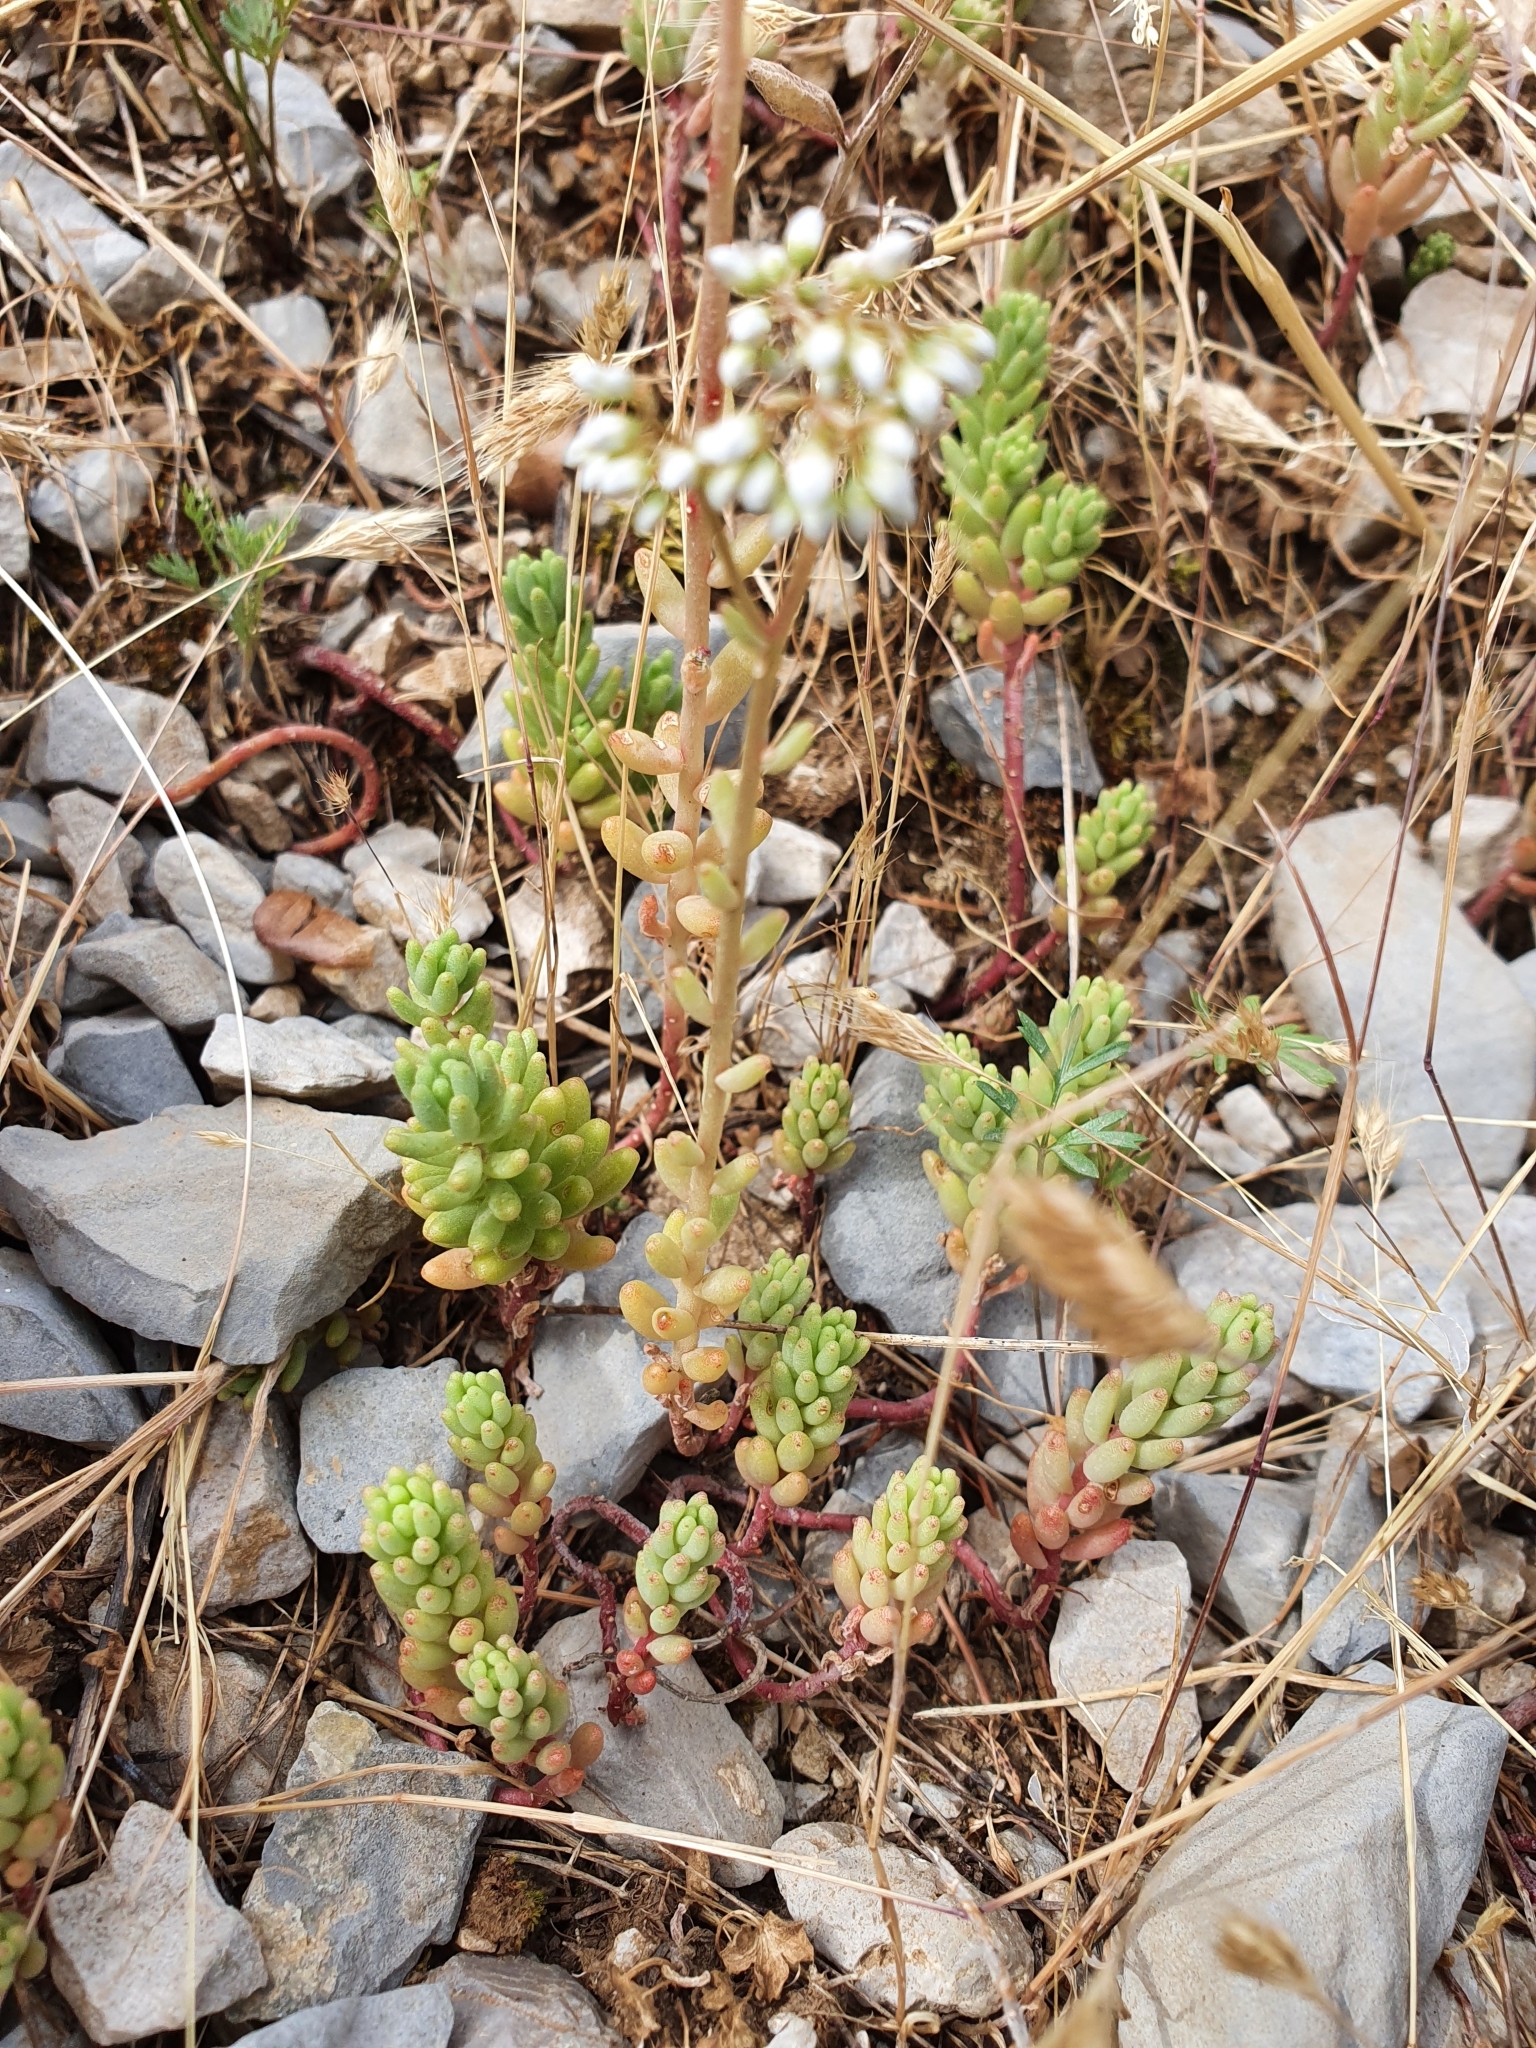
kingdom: Plantae
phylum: Tracheophyta
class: Magnoliopsida
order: Saxifragales
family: Crassulaceae
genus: Sedum
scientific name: Sedum album
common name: White stonecrop
